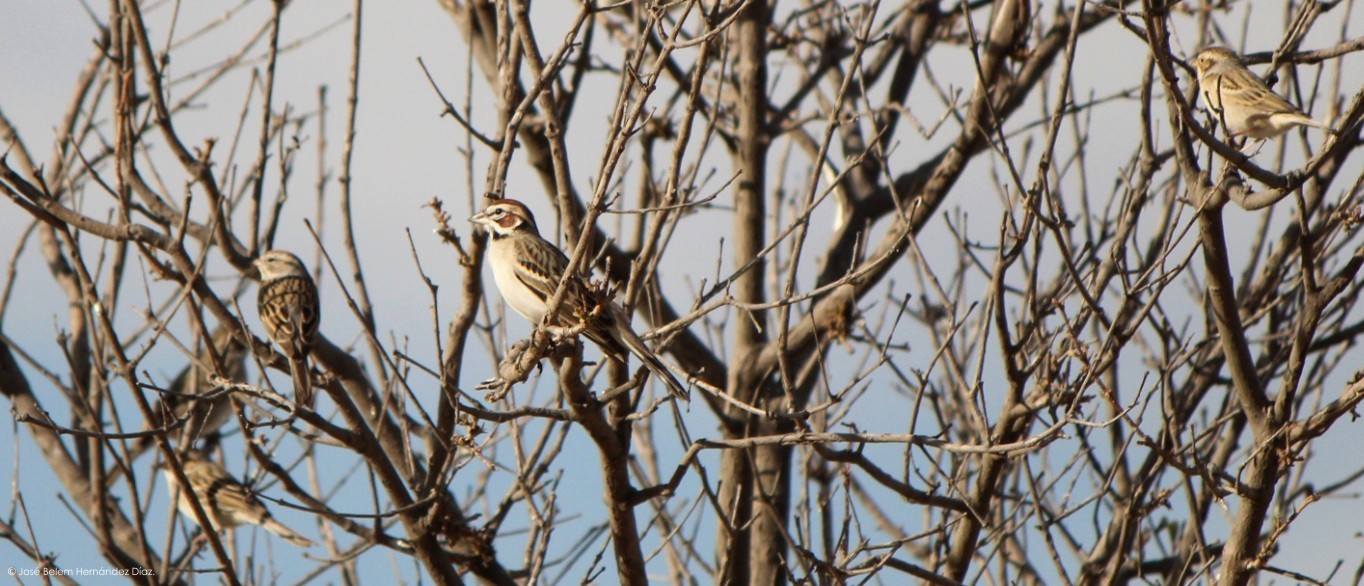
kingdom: Animalia
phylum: Chordata
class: Aves
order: Passeriformes
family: Passerellidae
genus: Chondestes
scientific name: Chondestes grammacus
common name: Lark sparrow
